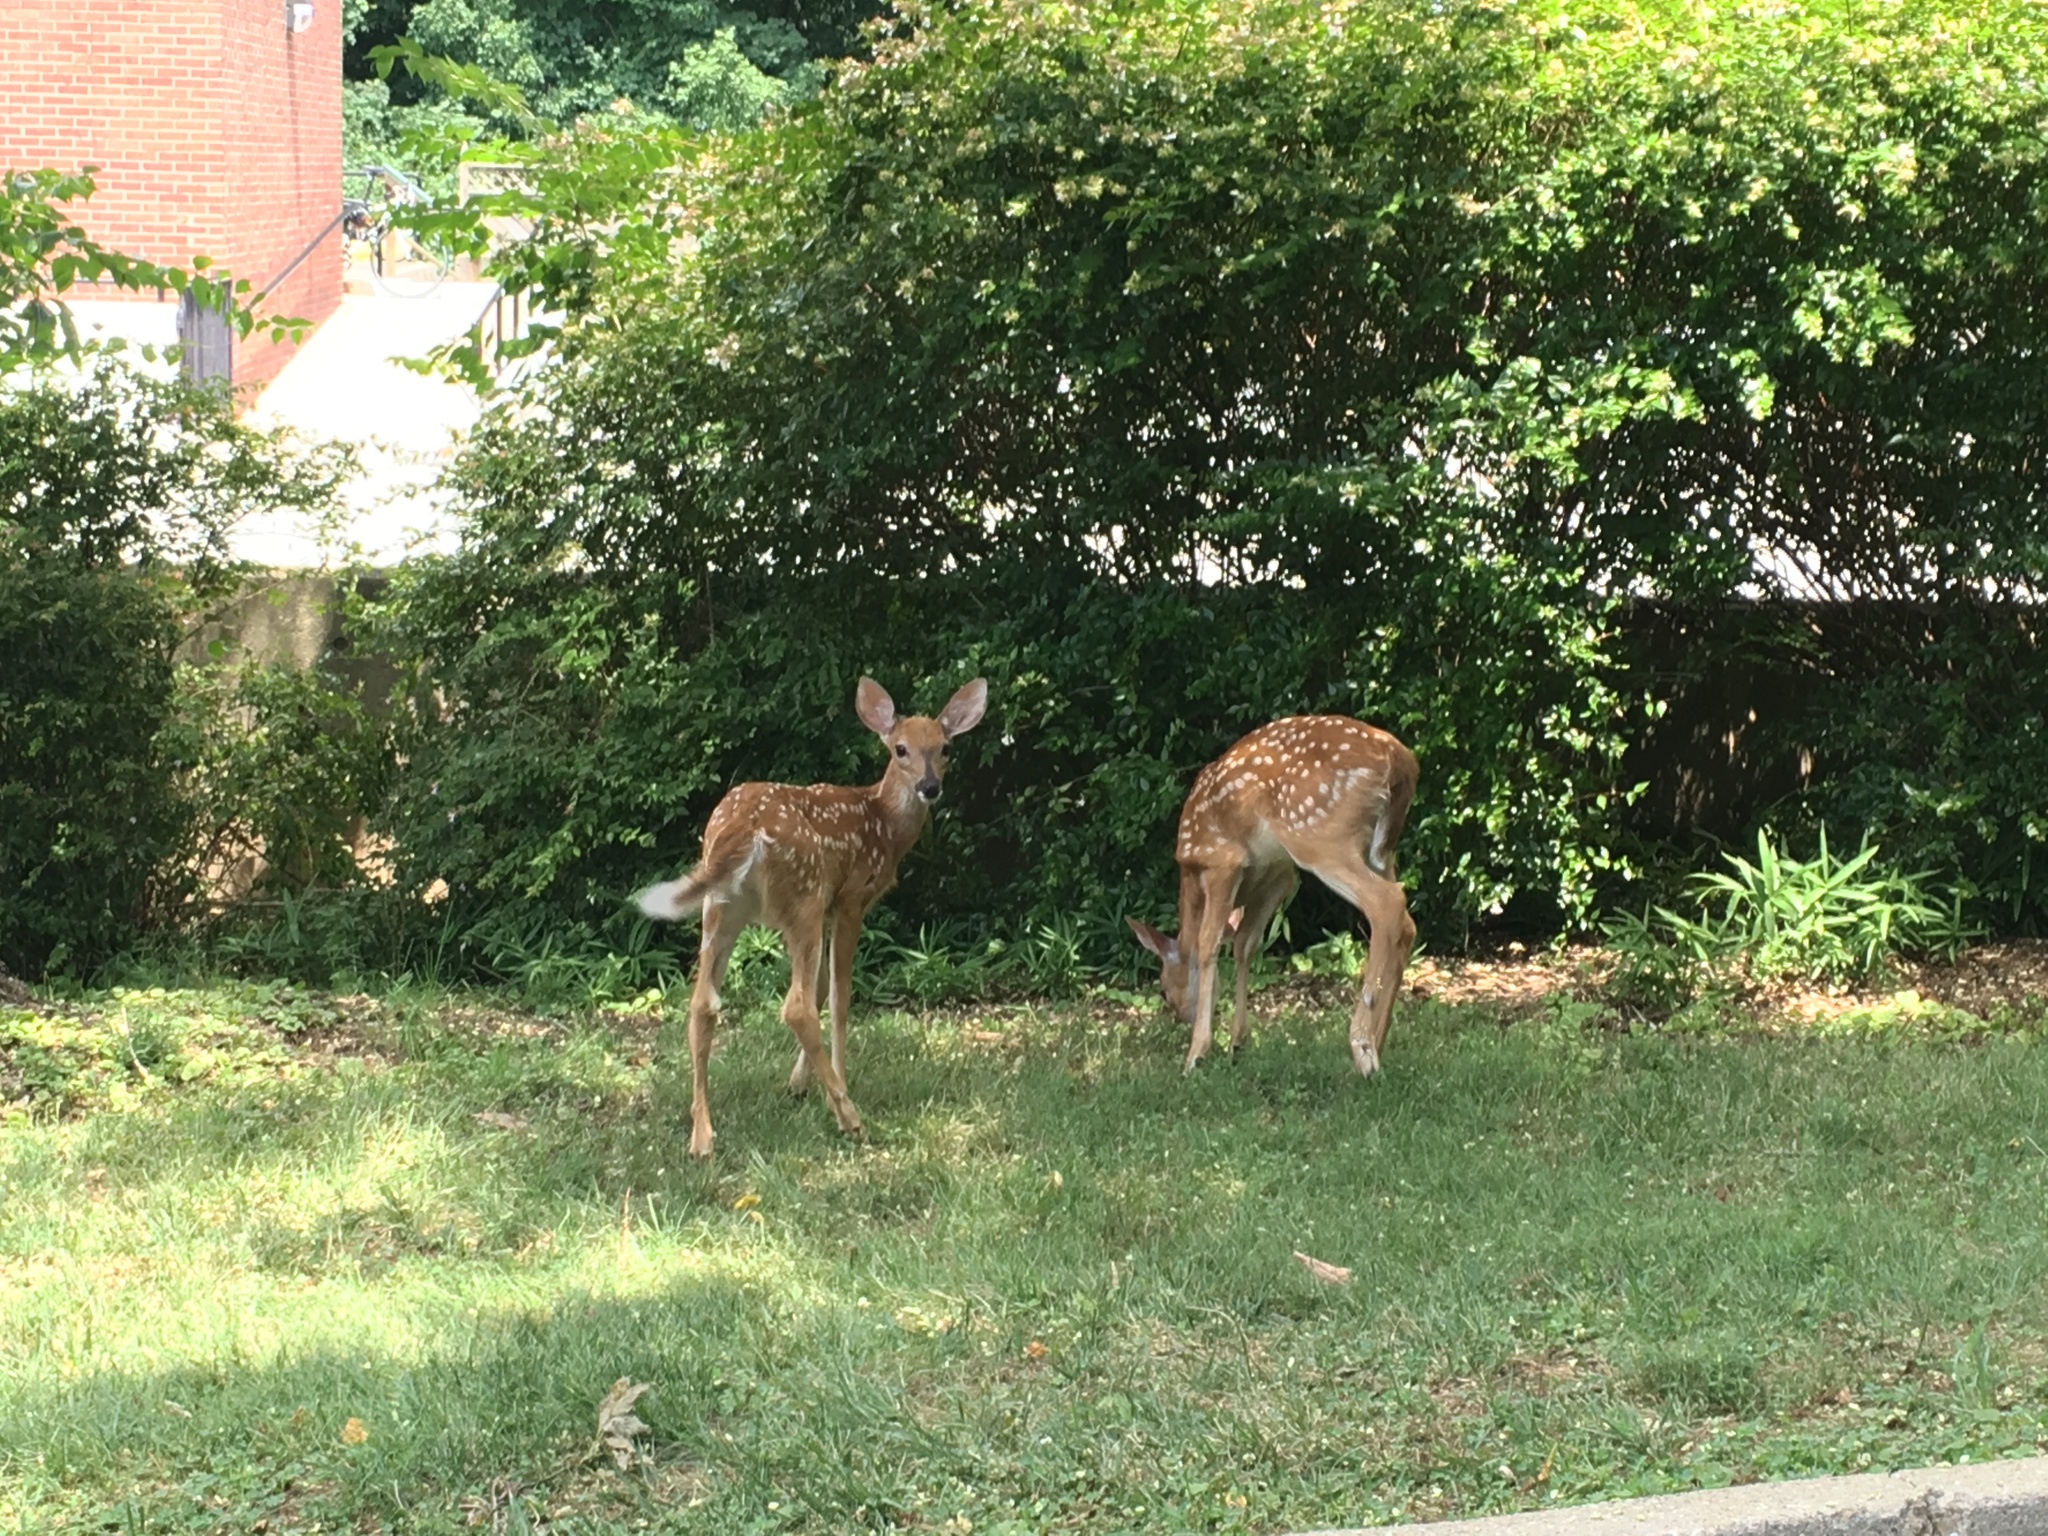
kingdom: Animalia
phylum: Chordata
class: Mammalia
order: Artiodactyla
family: Cervidae
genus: Odocoileus
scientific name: Odocoileus virginianus
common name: White-tailed deer
